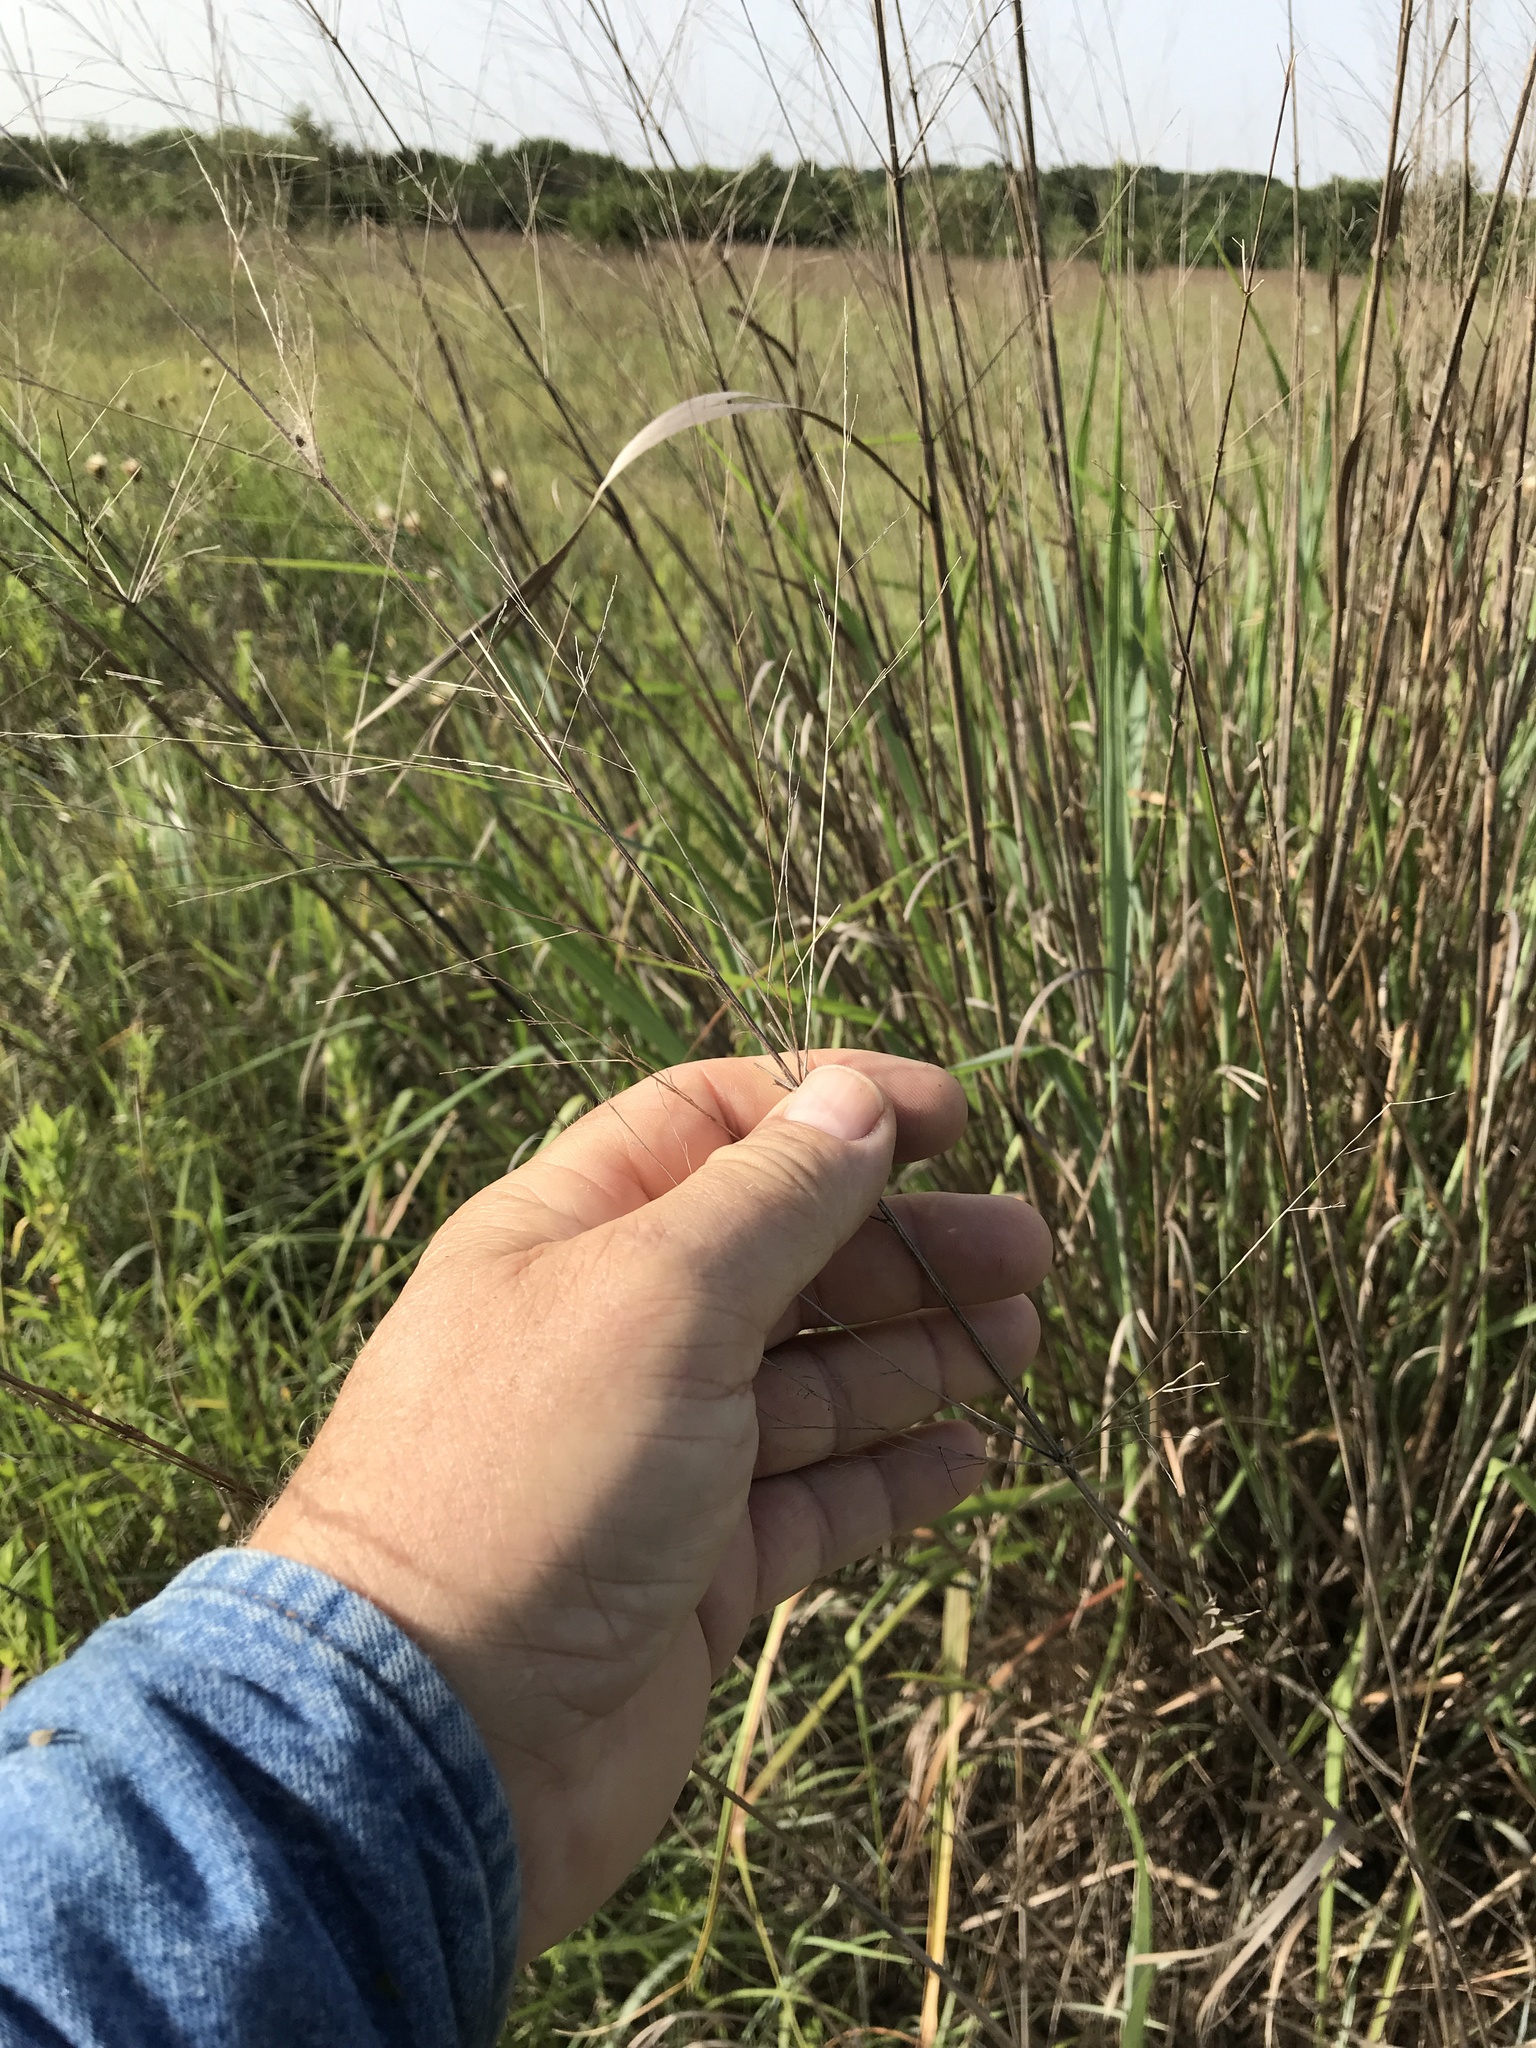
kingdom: Plantae
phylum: Tracheophyta
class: Liliopsida
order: Poales
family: Poaceae
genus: Panicum
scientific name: Panicum virgatum
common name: Switchgrass
